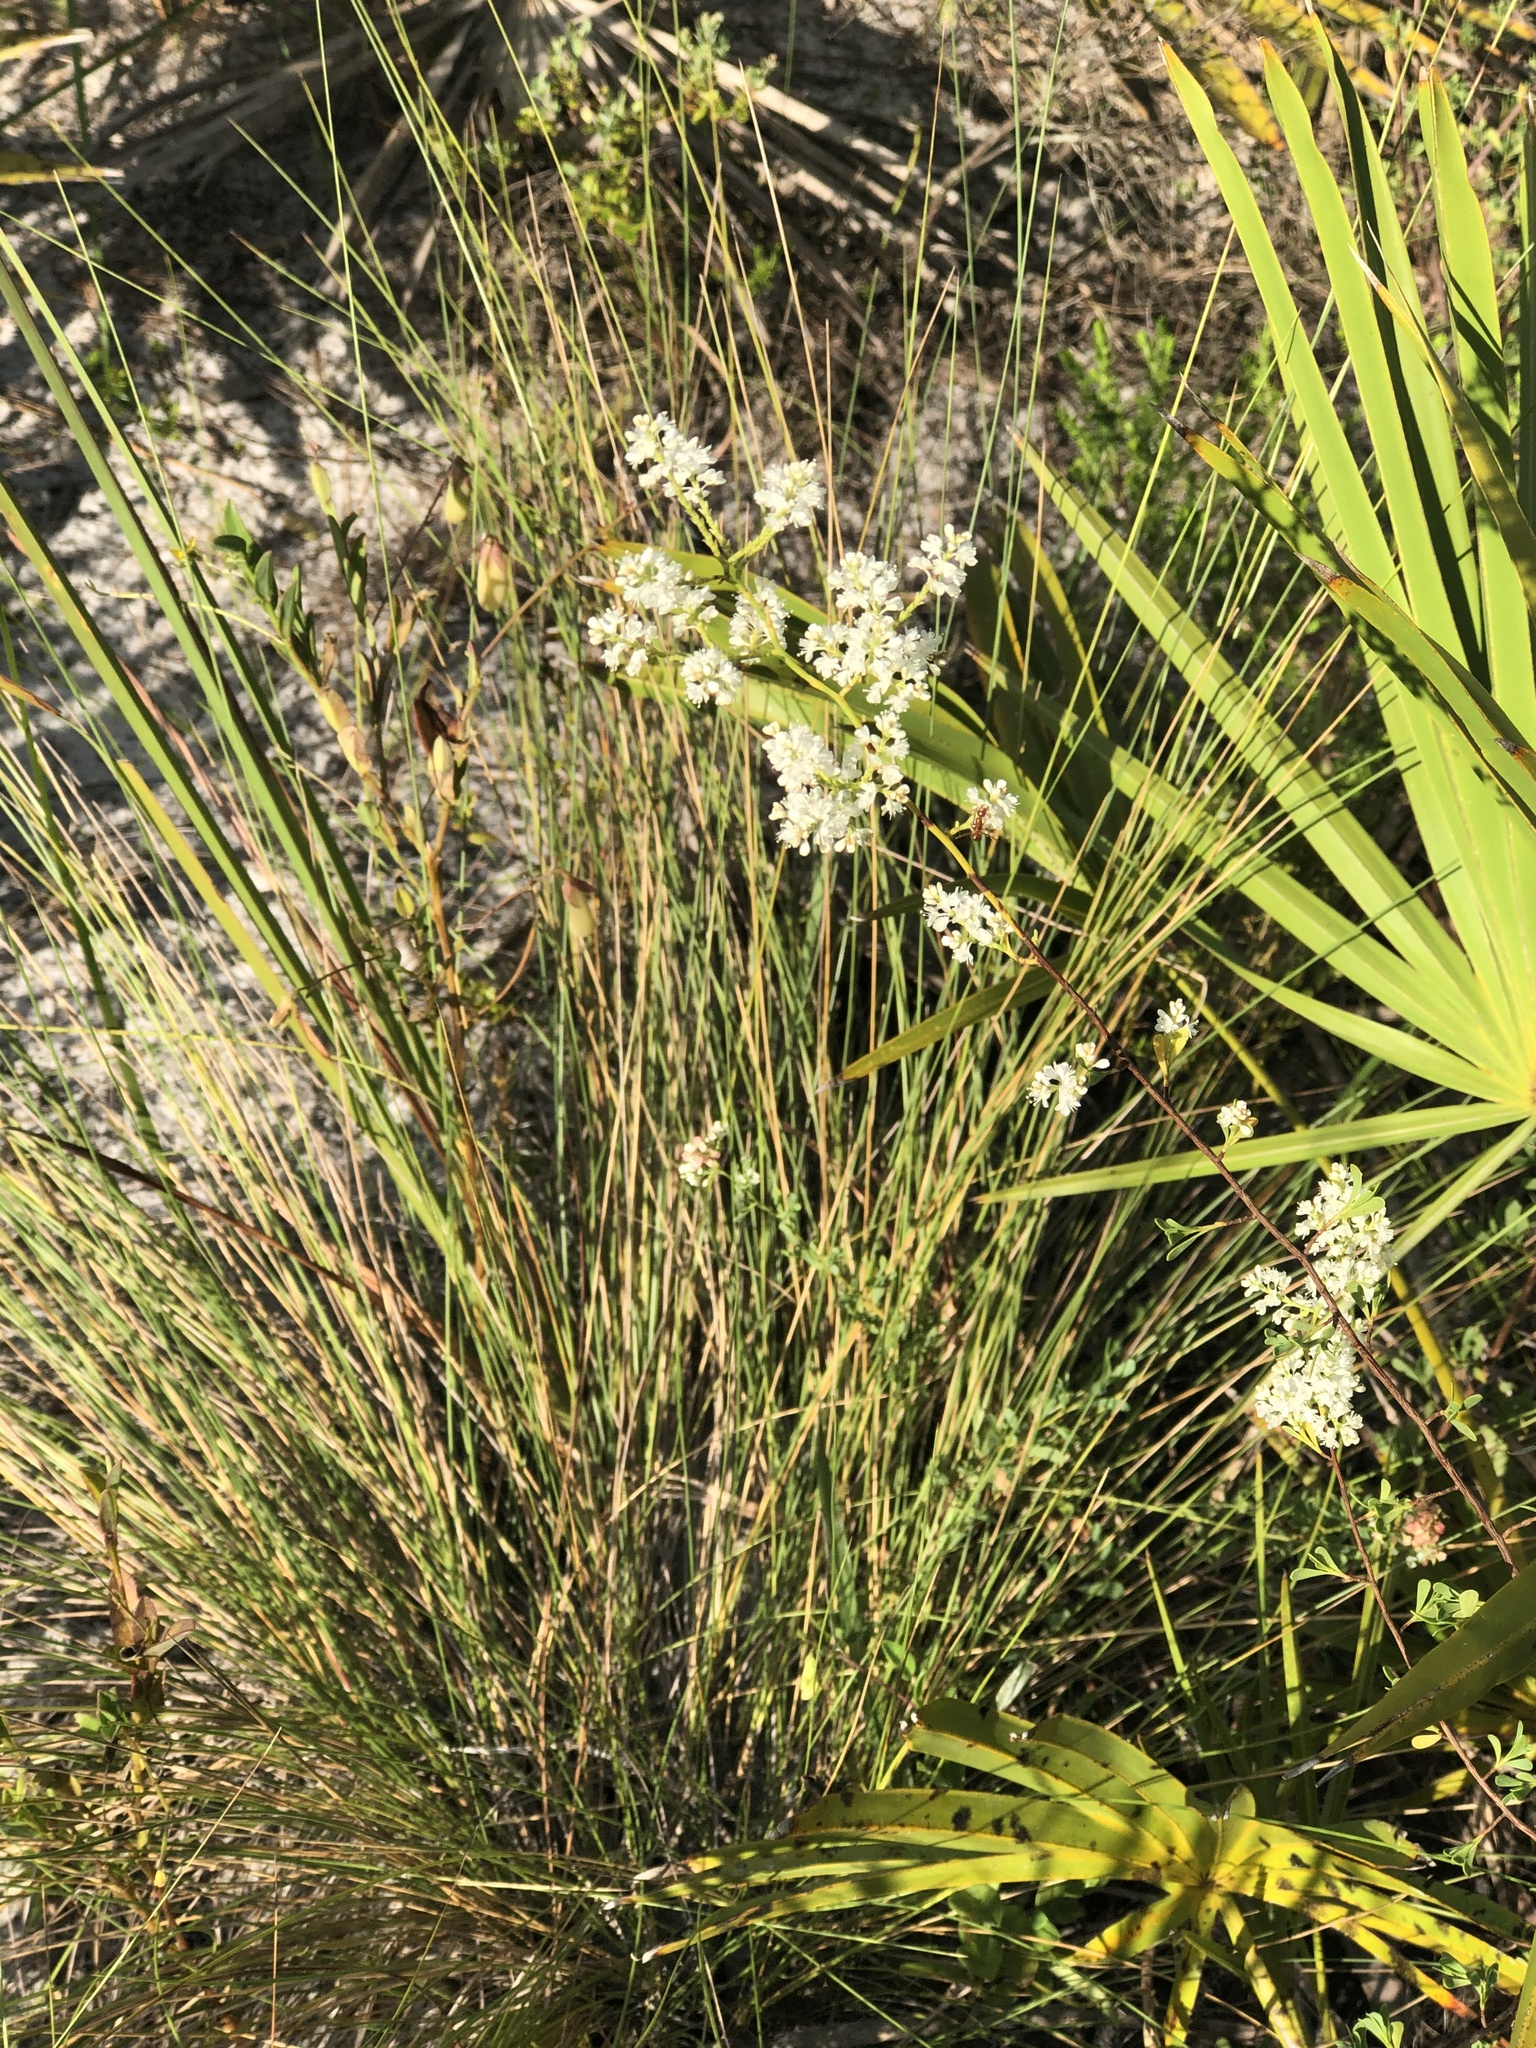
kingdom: Plantae
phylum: Tracheophyta
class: Magnoliopsida
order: Caryophyllales
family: Polygonaceae
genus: Polygonella
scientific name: Polygonella polygama
